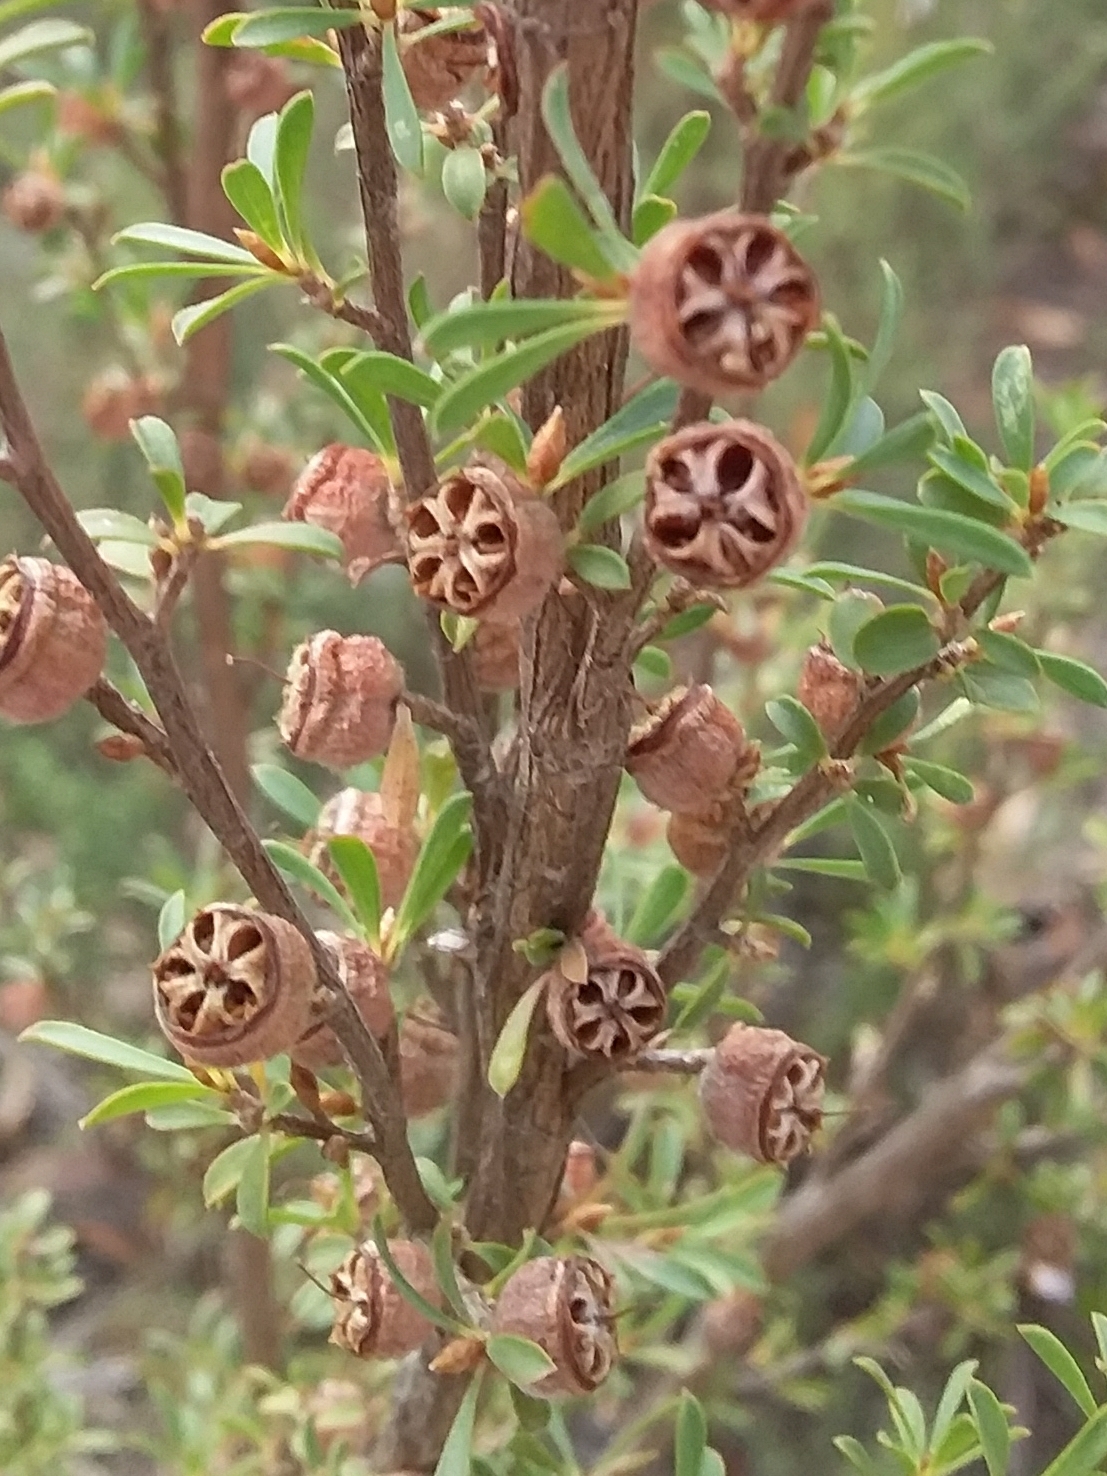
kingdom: Plantae
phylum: Tracheophyta
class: Magnoliopsida
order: Myrtales
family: Myrtaceae
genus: Leptospermum
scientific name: Leptospermum myrsinoides
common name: Heath teatree
